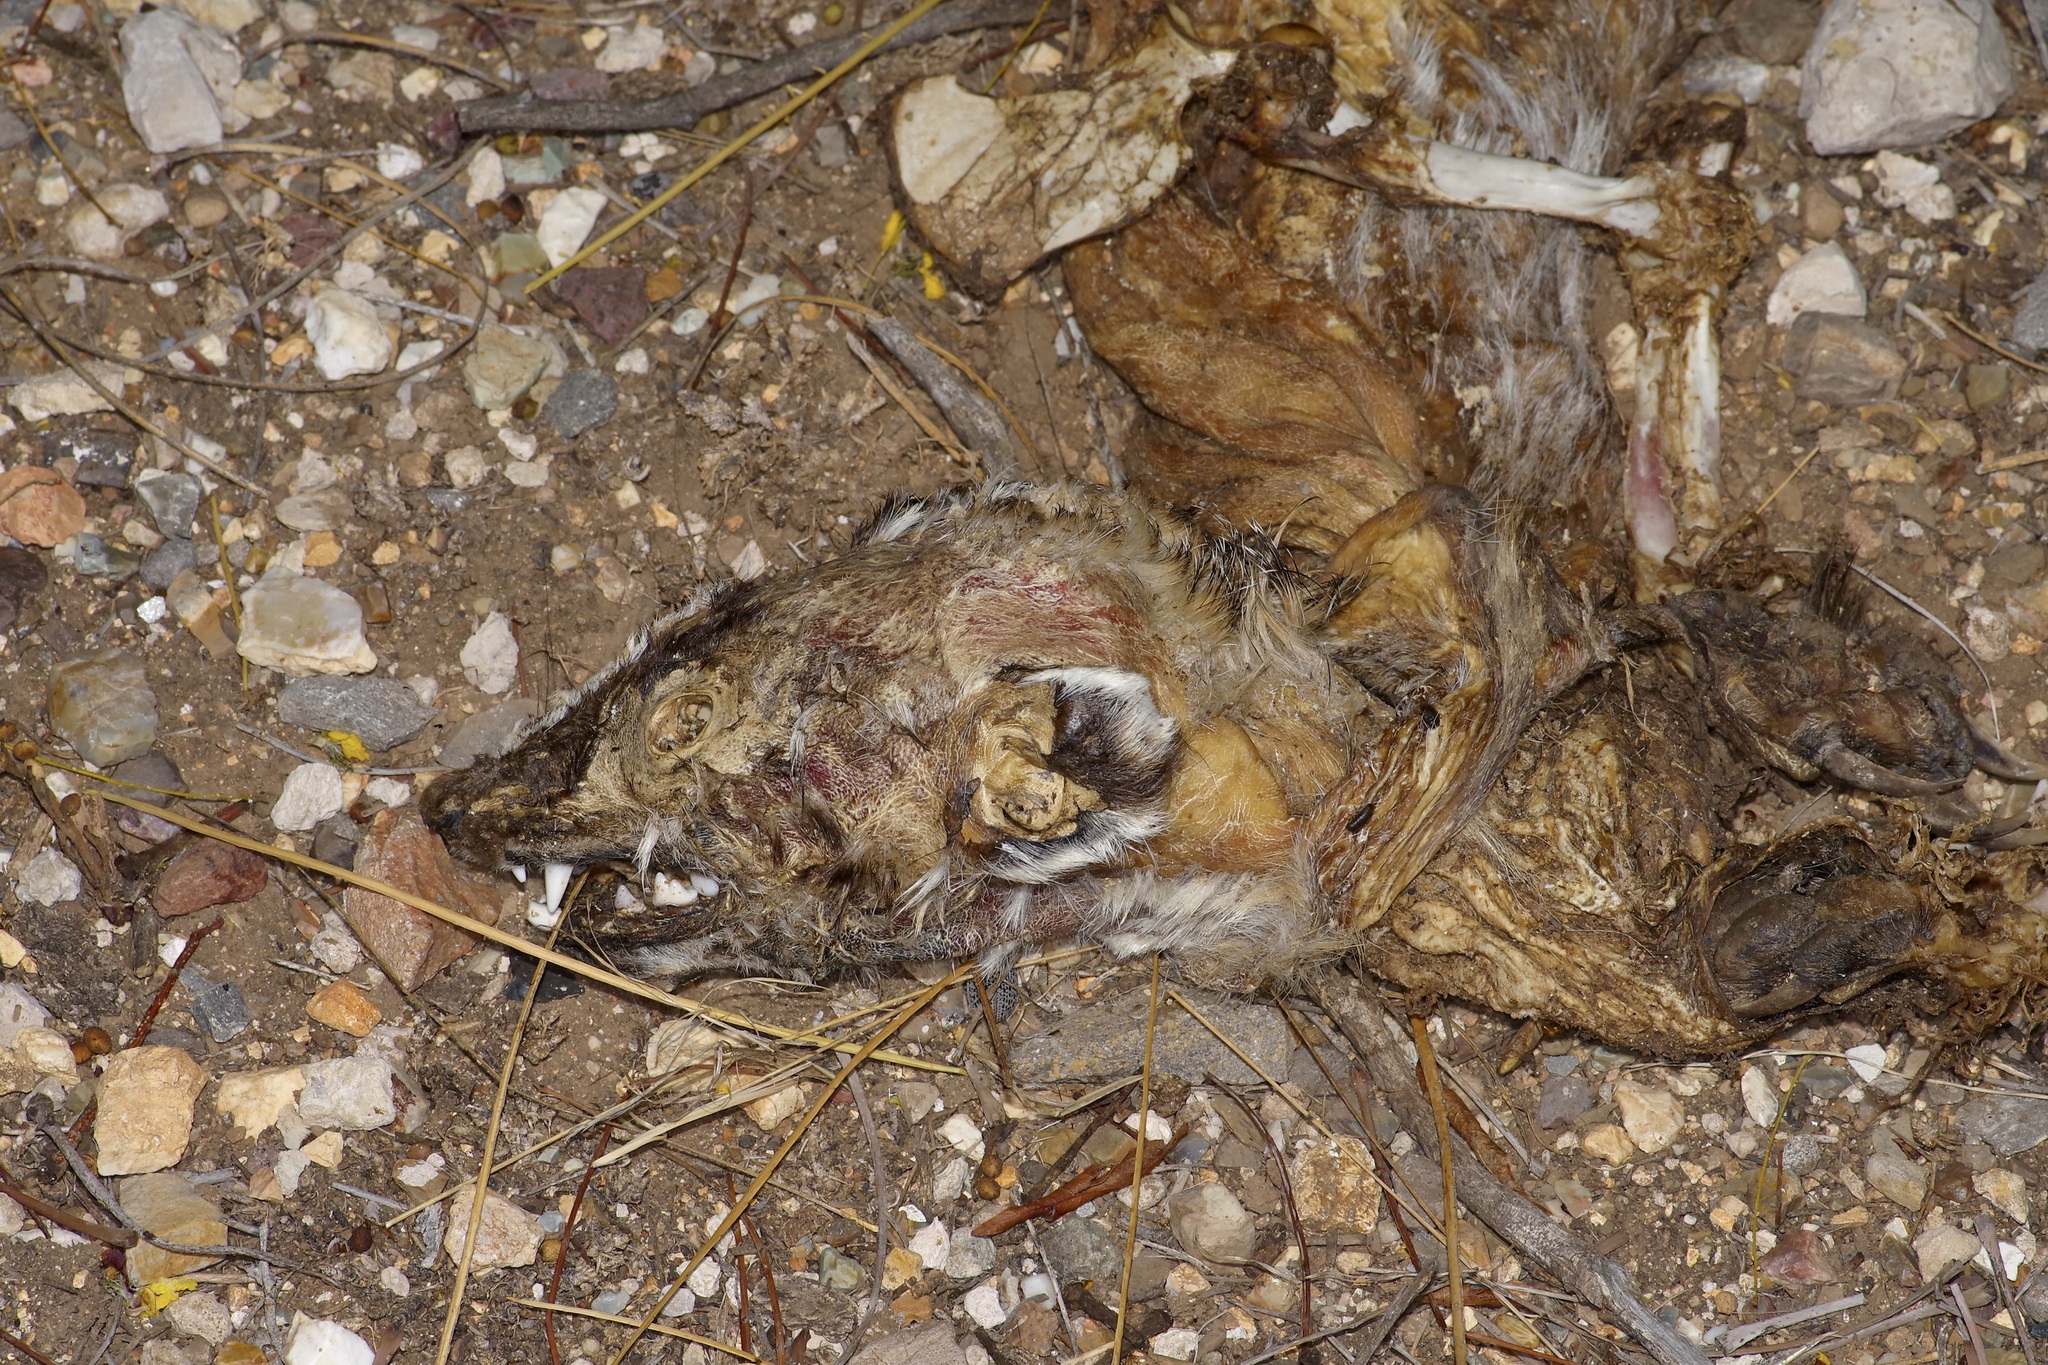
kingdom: Animalia
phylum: Chordata
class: Mammalia
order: Carnivora
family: Mustelidae
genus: Taxidea
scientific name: Taxidea taxus
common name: American badger
